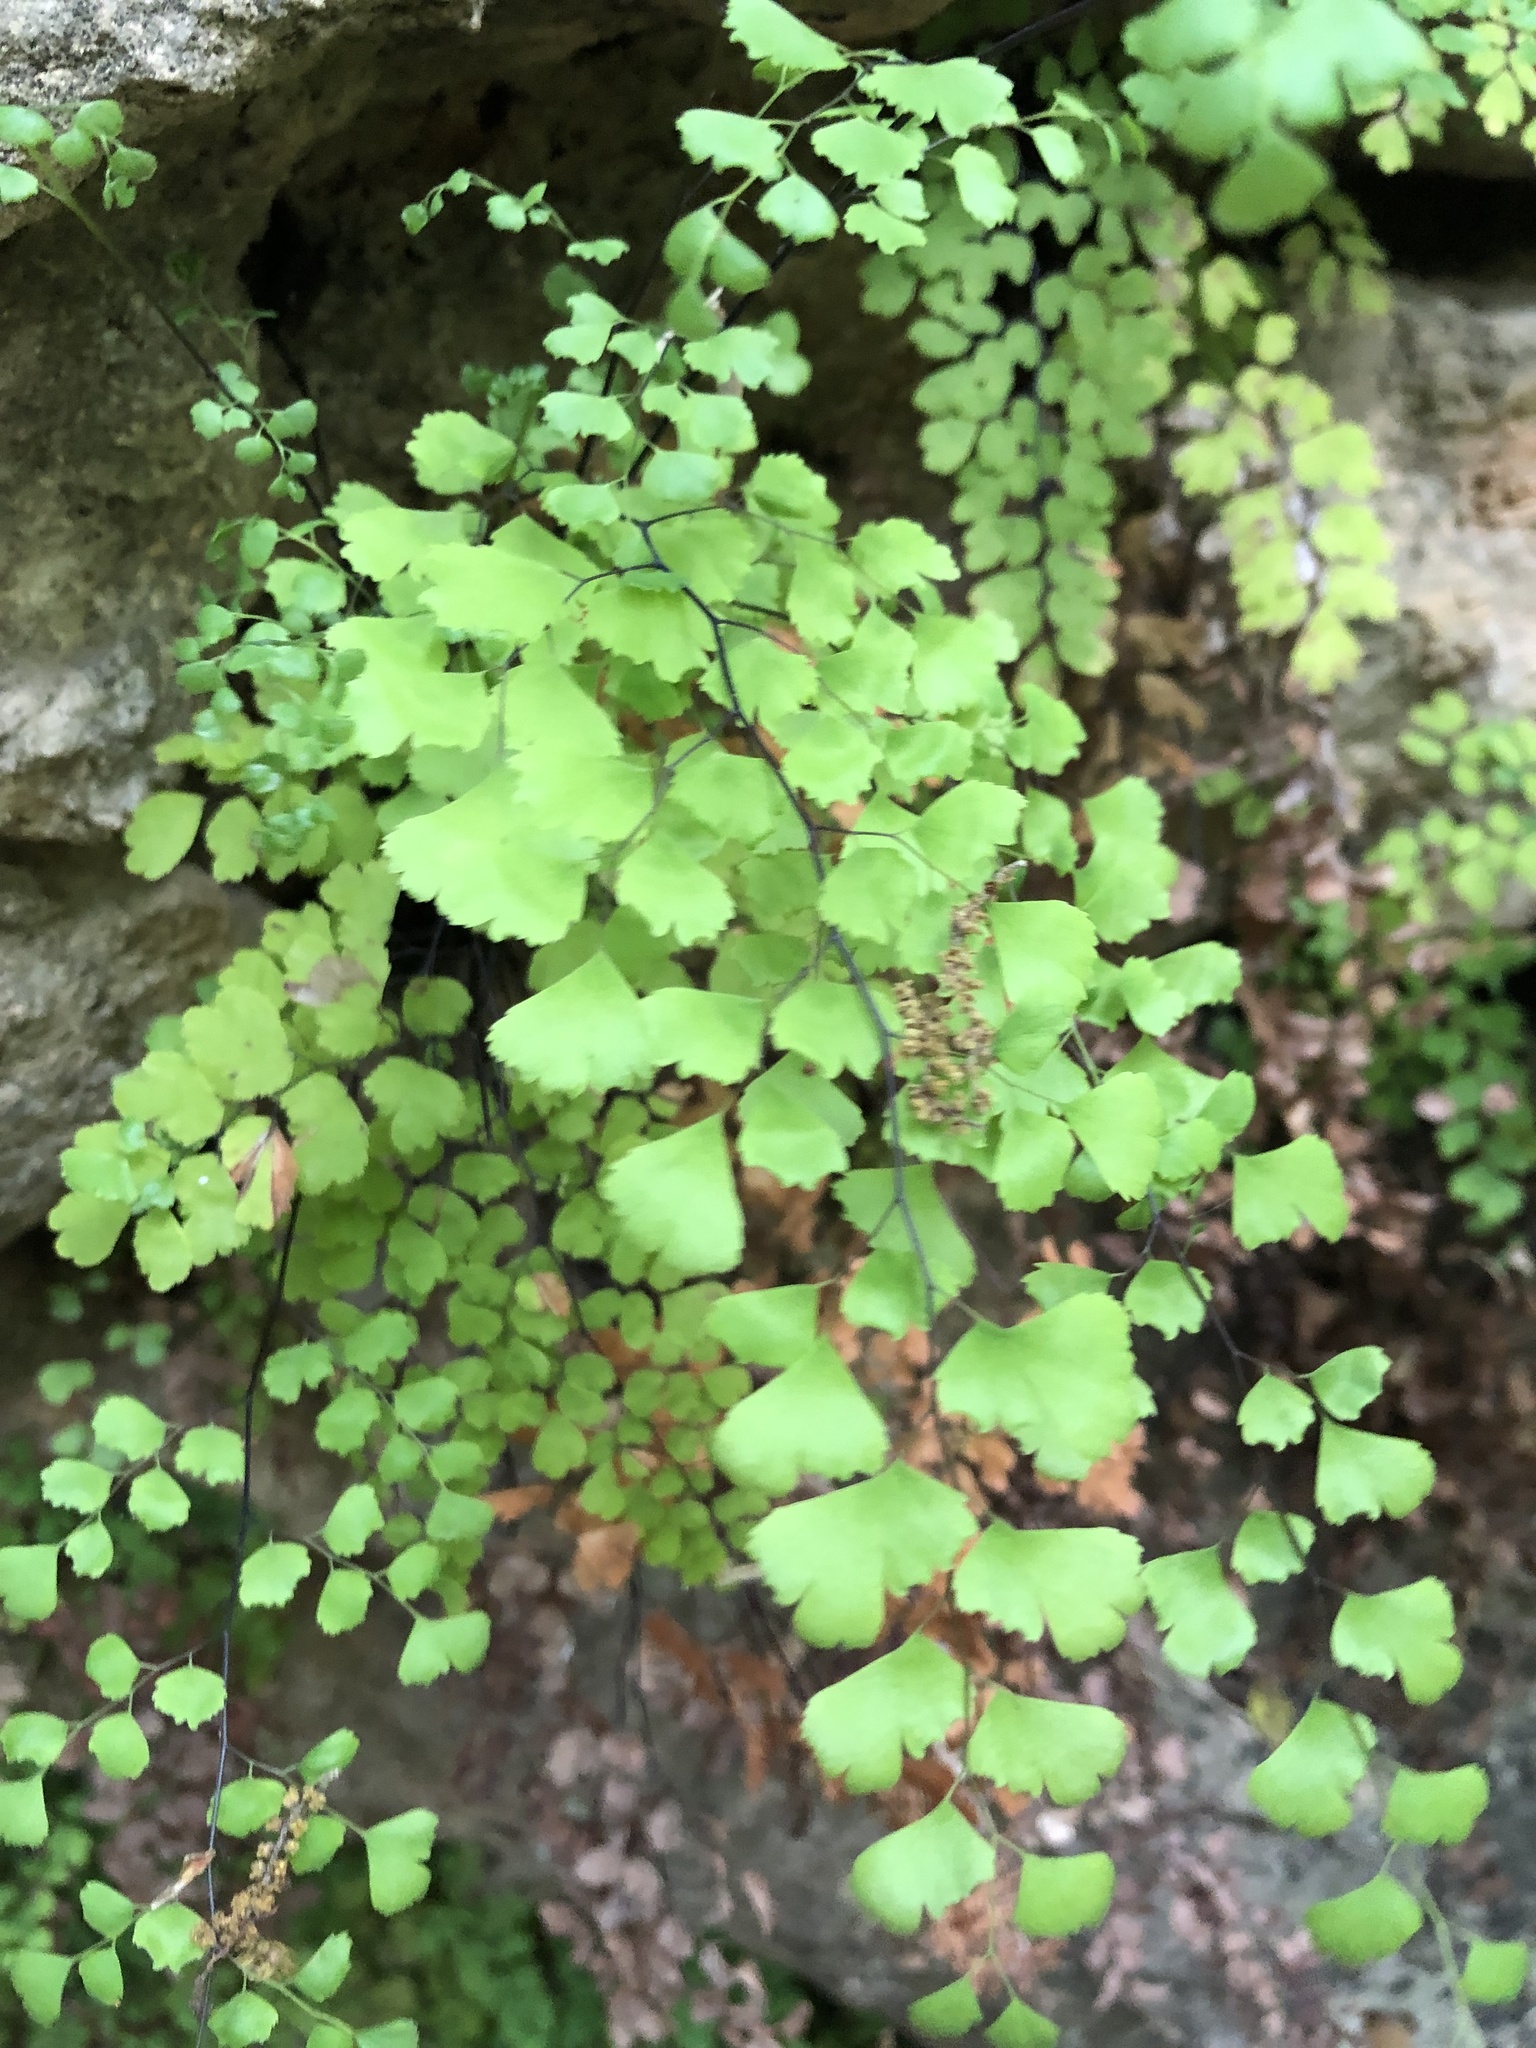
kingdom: Plantae
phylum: Tracheophyta
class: Polypodiopsida
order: Polypodiales
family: Pteridaceae
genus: Adiantum
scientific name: Adiantum capillus-veneris
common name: Maidenhair fern
